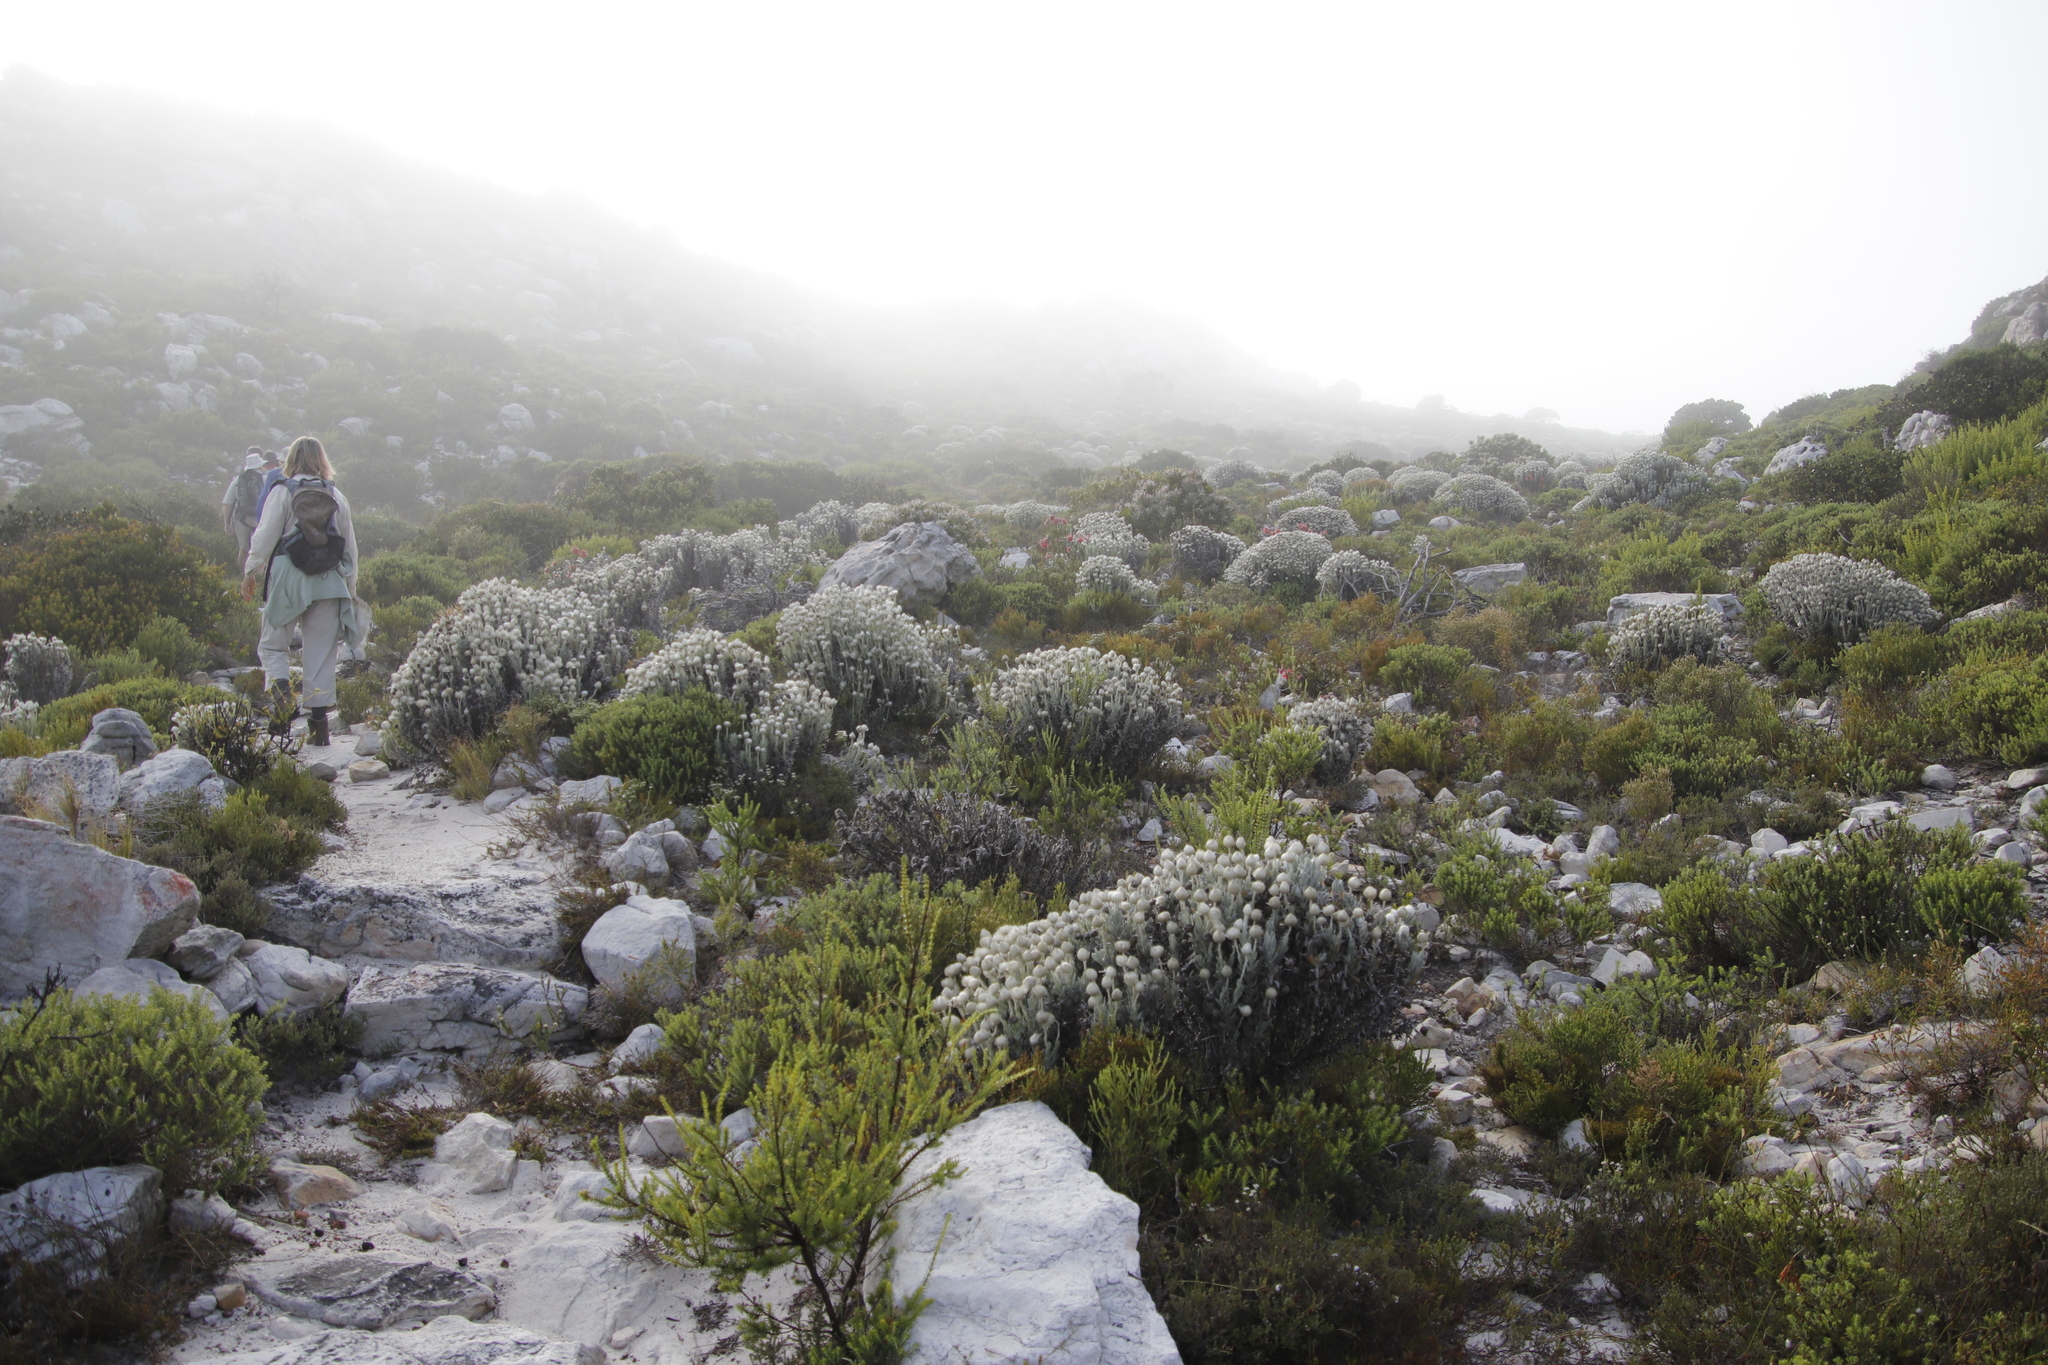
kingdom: Plantae
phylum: Tracheophyta
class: Magnoliopsida
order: Asterales
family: Asteraceae
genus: Syncarpha
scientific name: Syncarpha vestita
